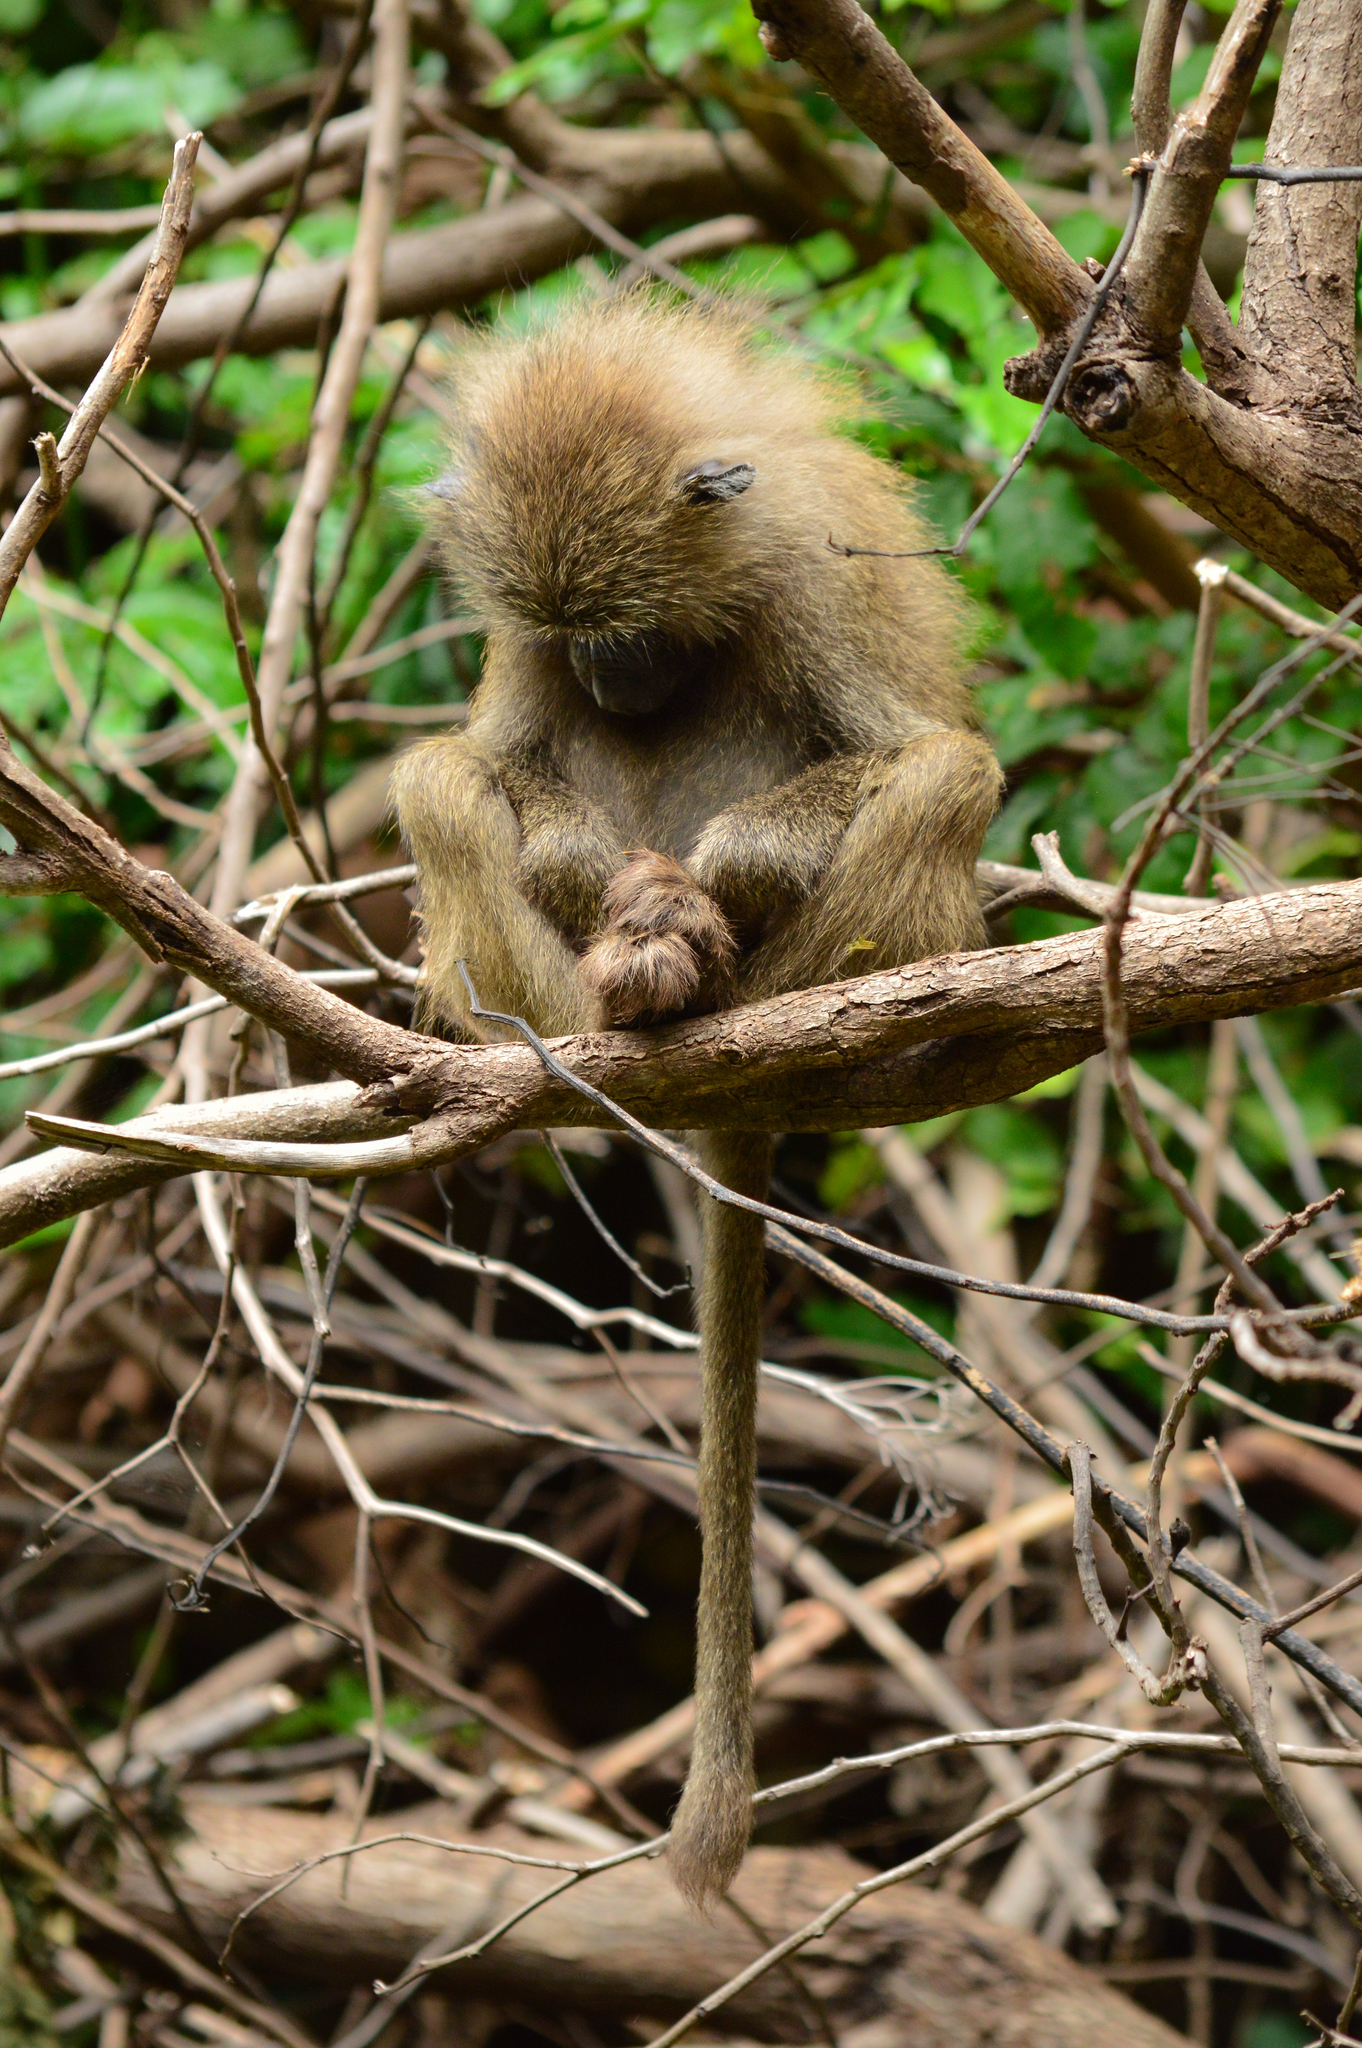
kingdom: Animalia
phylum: Chordata
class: Mammalia
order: Primates
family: Cercopithecidae
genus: Papio
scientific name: Papio anubis
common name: Olive baboon
